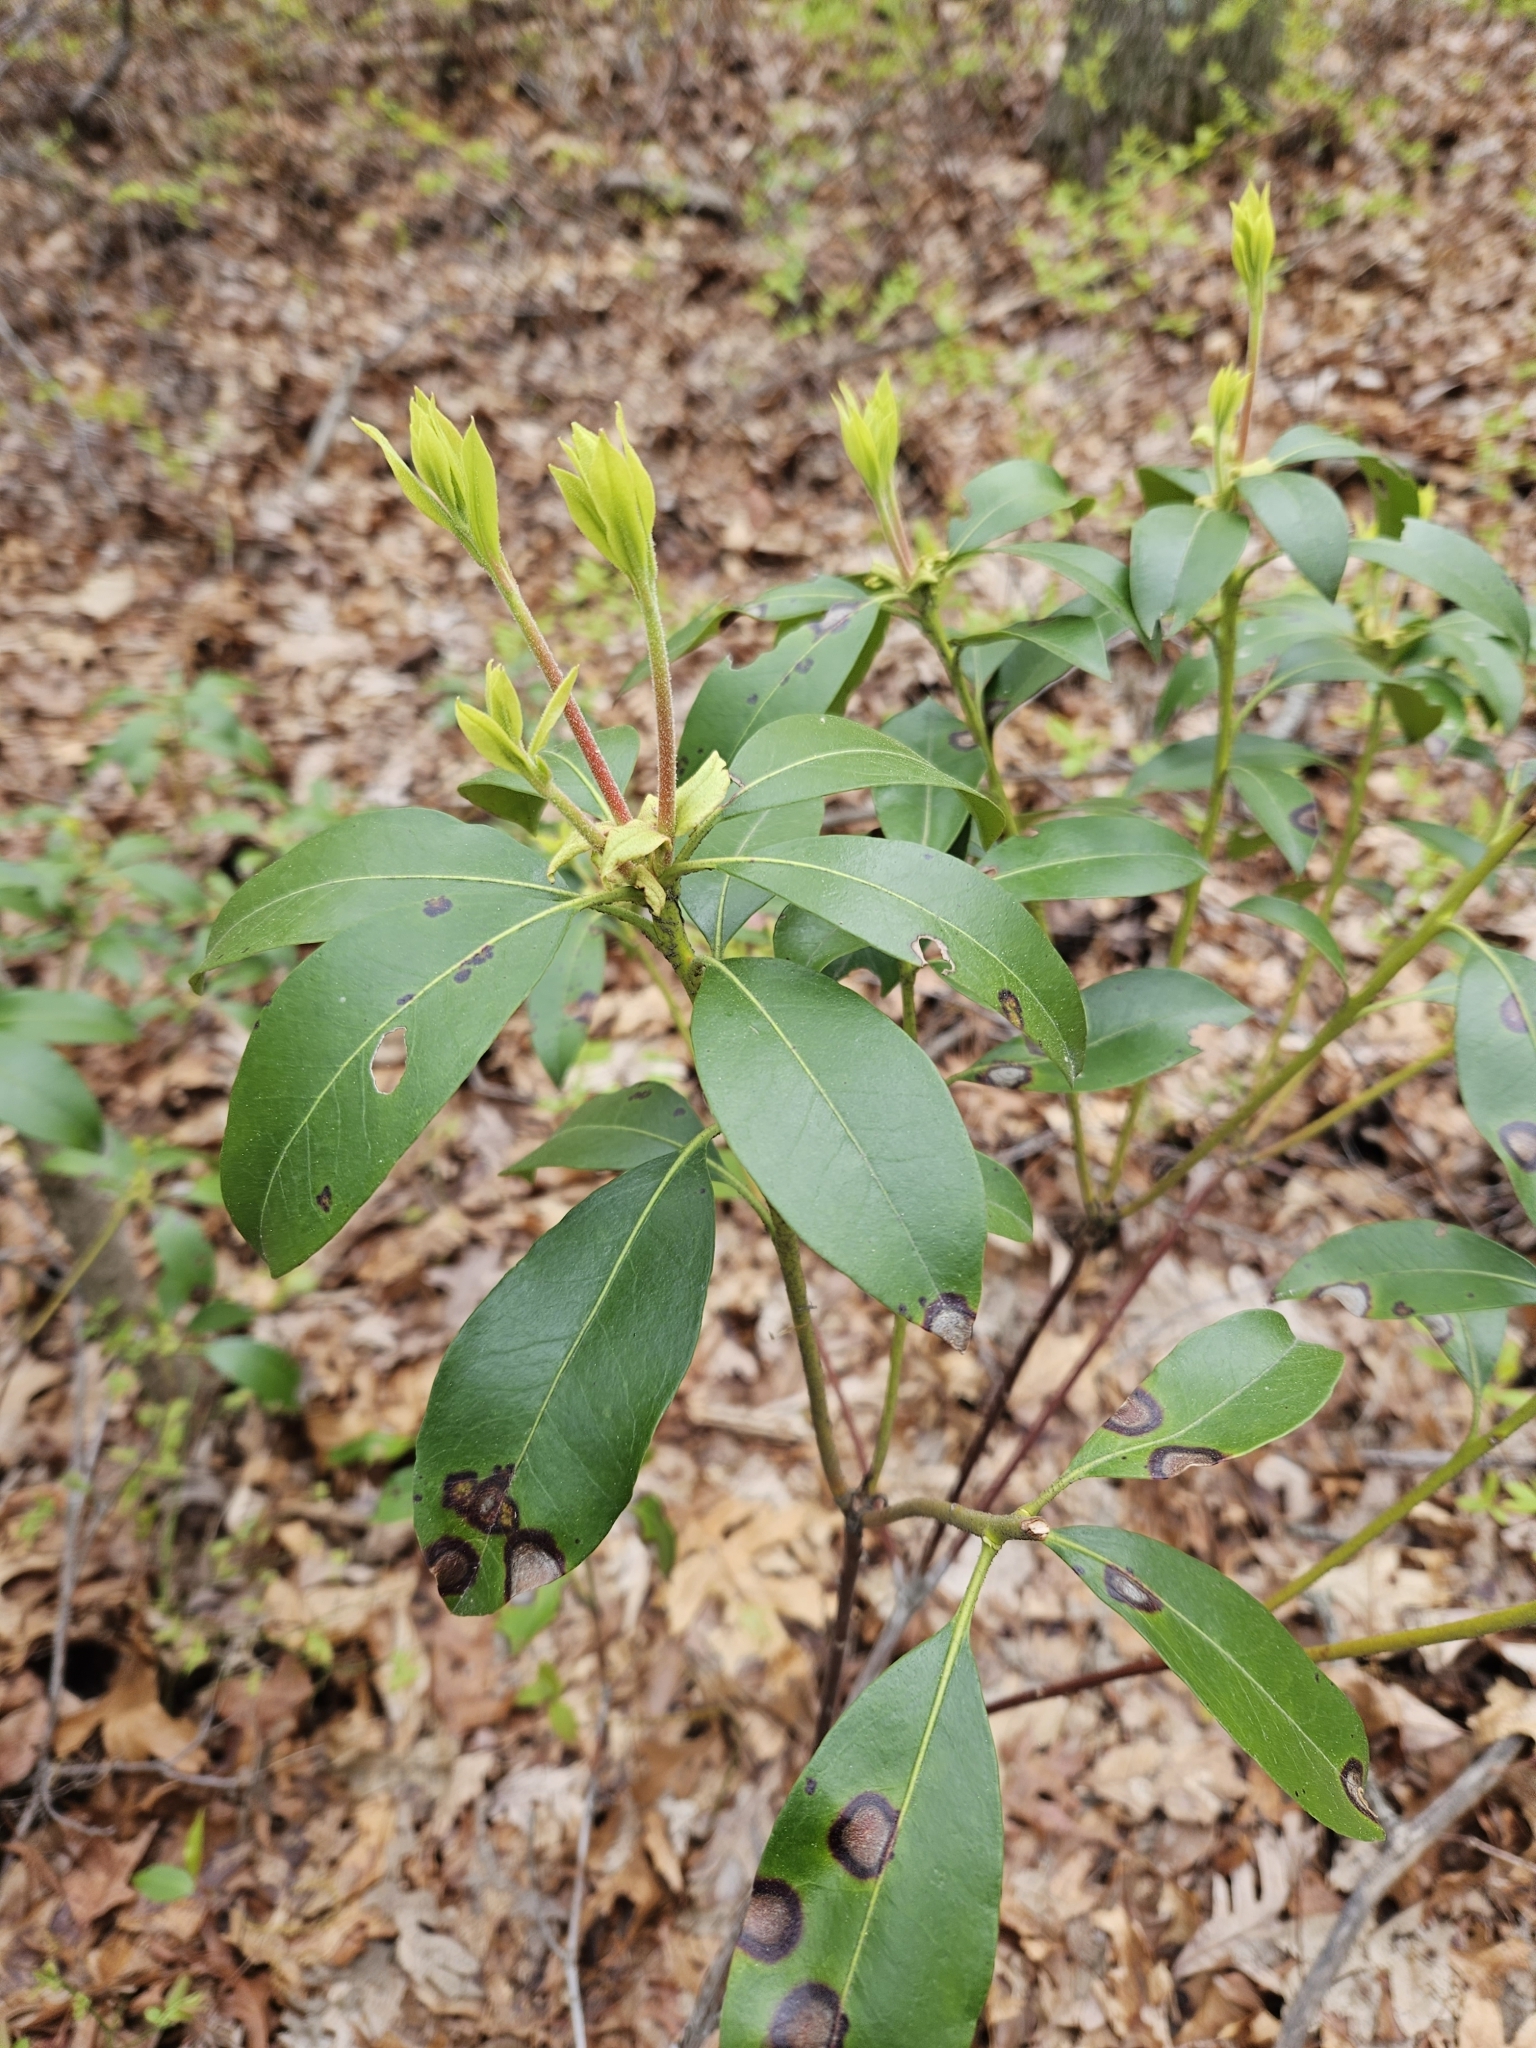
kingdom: Plantae
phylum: Tracheophyta
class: Magnoliopsida
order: Ericales
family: Ericaceae
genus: Kalmia
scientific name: Kalmia latifolia
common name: Mountain-laurel
